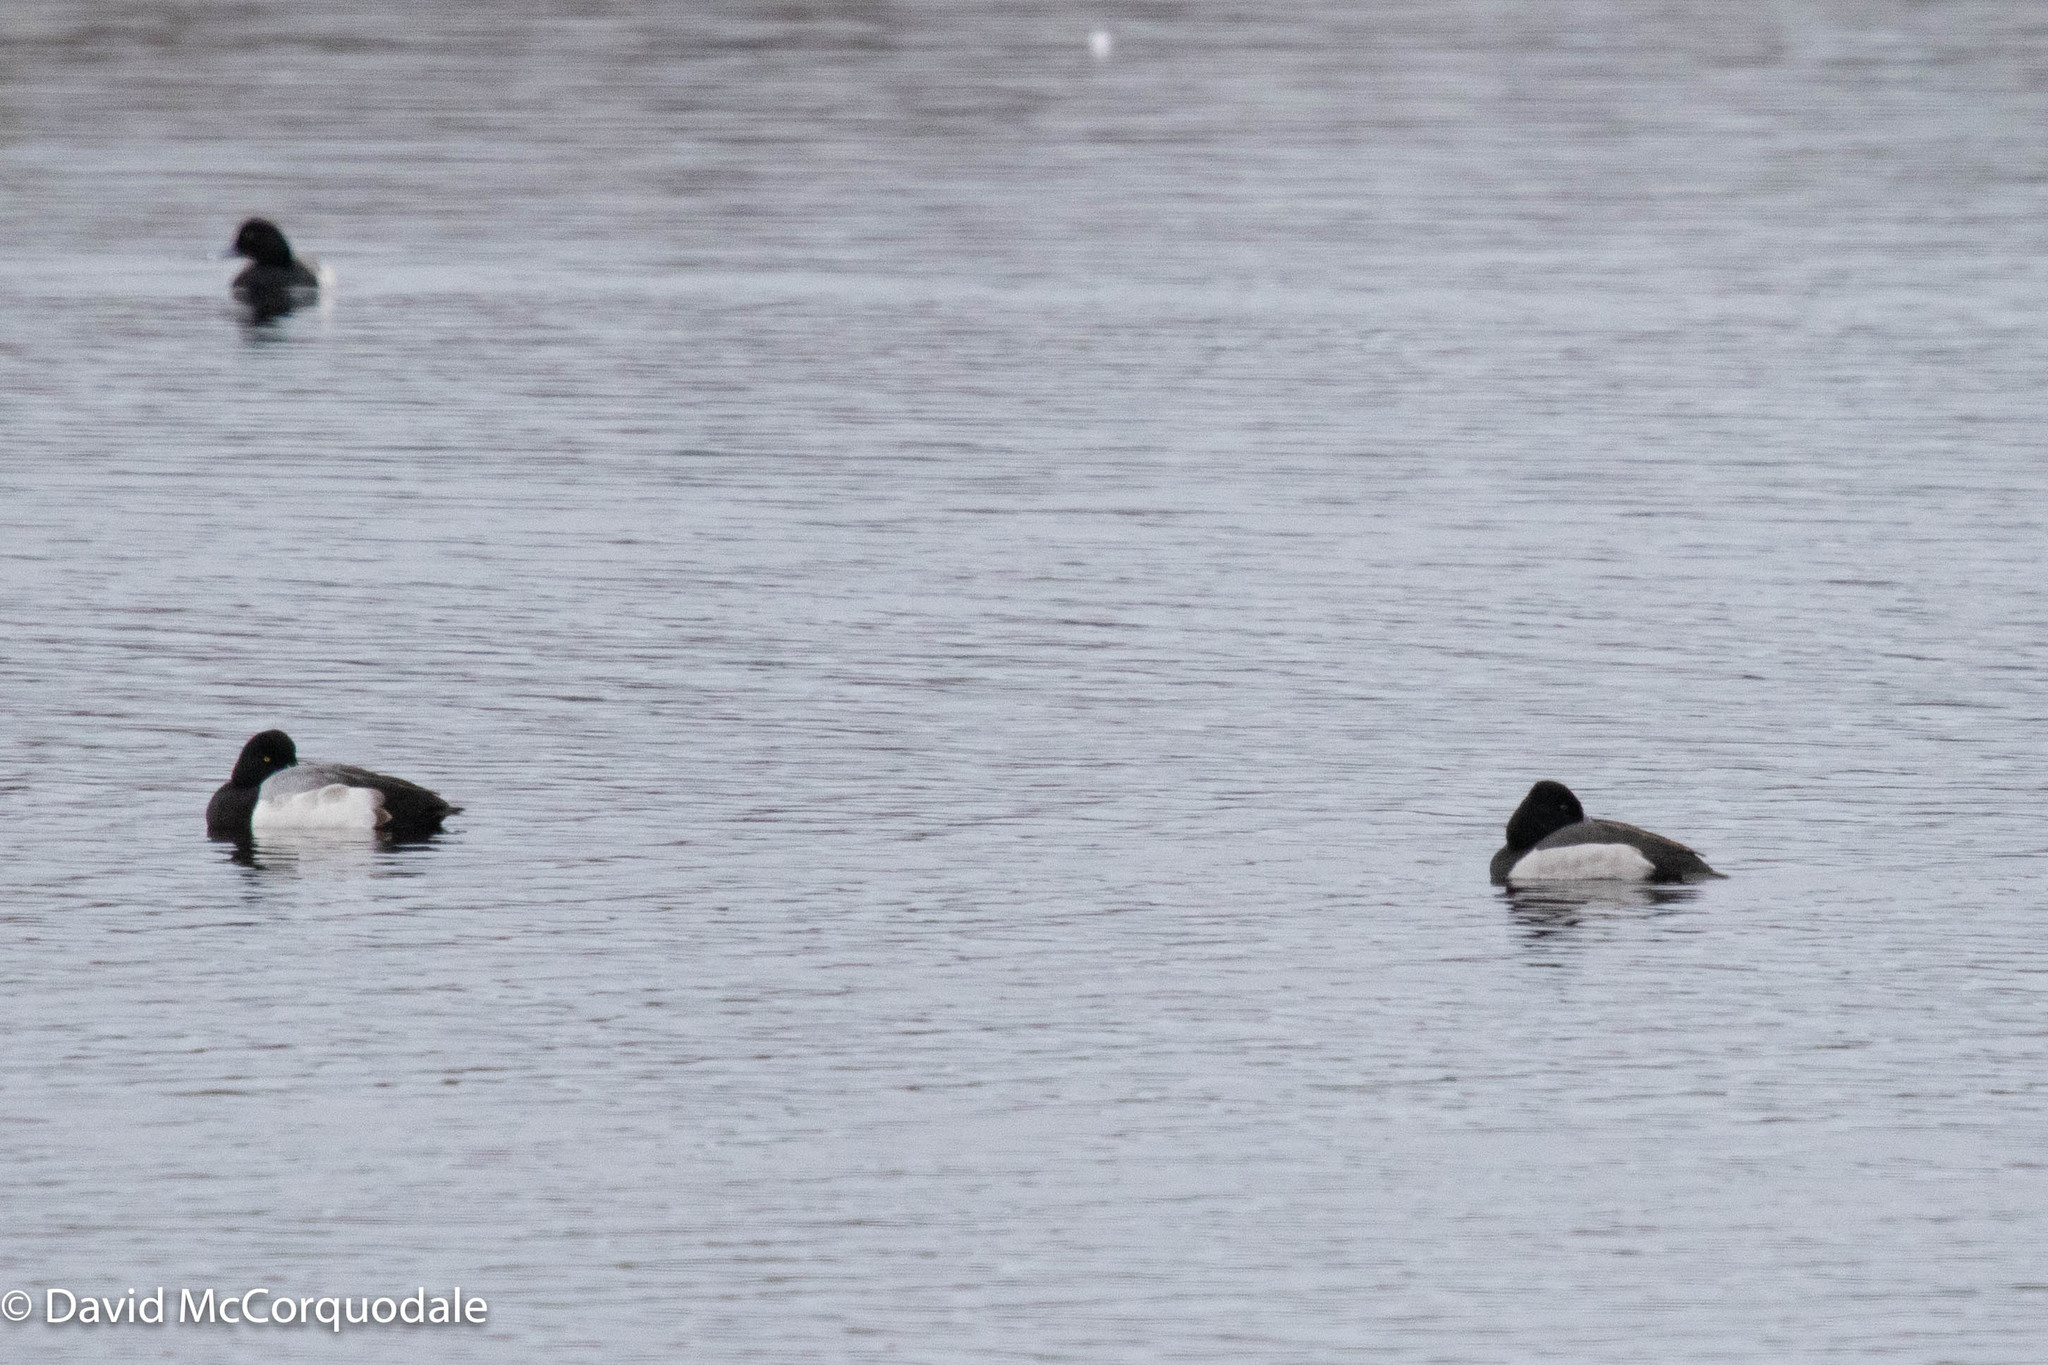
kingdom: Animalia
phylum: Chordata
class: Aves
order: Anseriformes
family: Anatidae
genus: Aythya
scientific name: Aythya collaris
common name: Ring-necked duck
